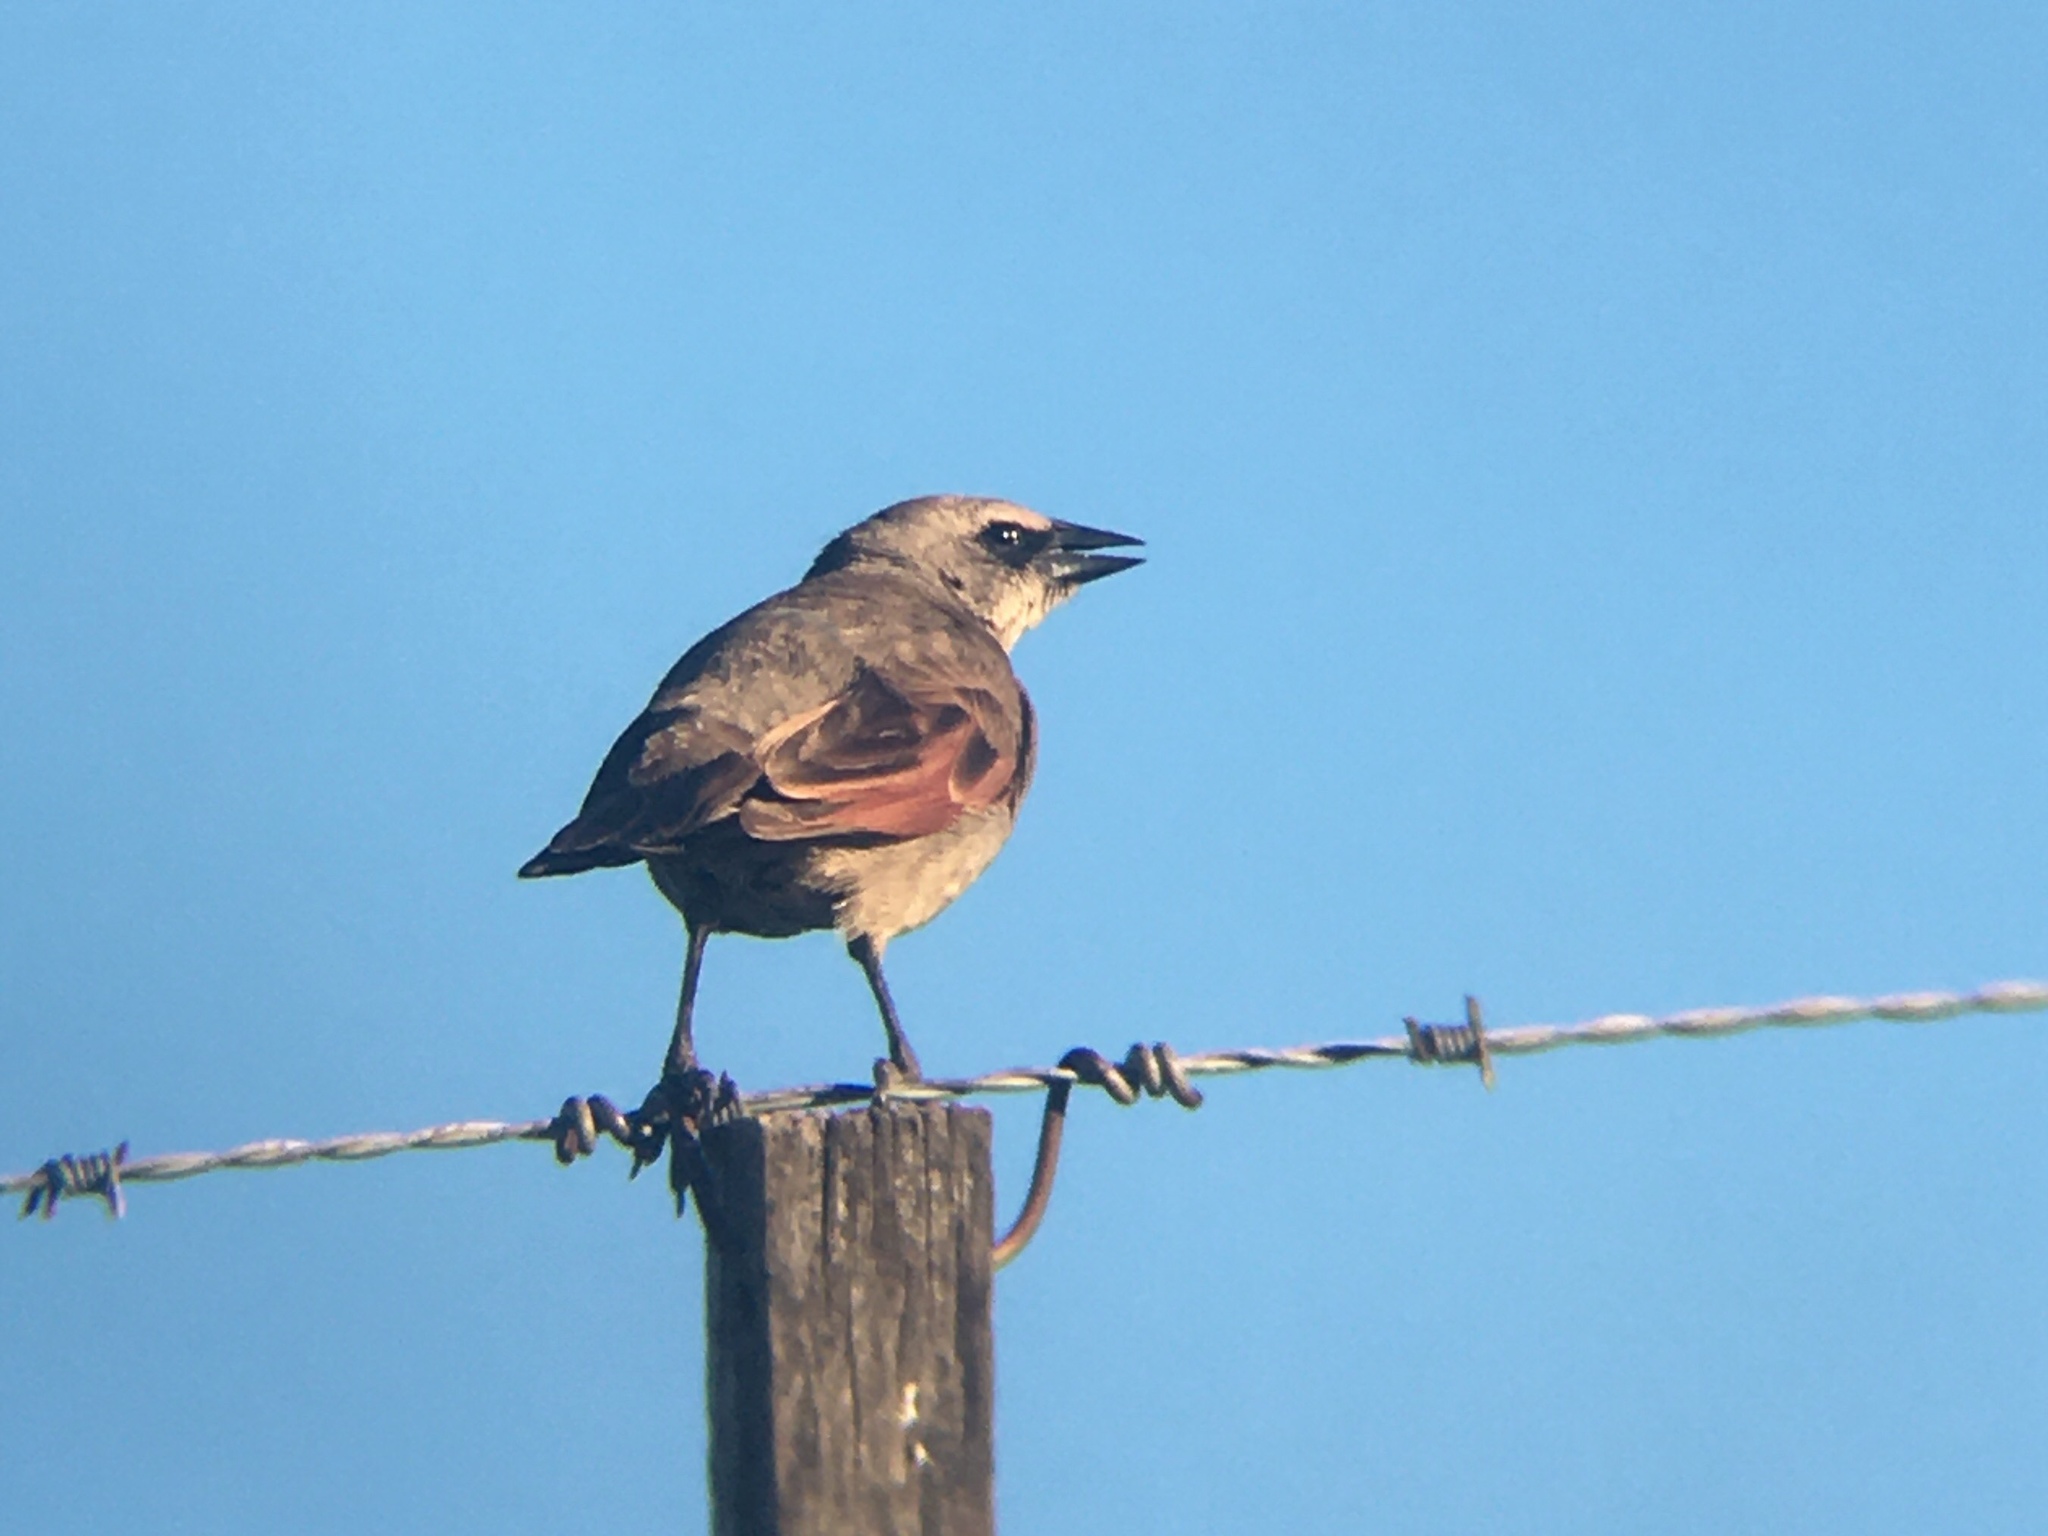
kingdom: Animalia
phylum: Chordata
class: Aves
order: Passeriformes
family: Icteridae
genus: Agelaioides
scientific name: Agelaioides badius
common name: Baywing
